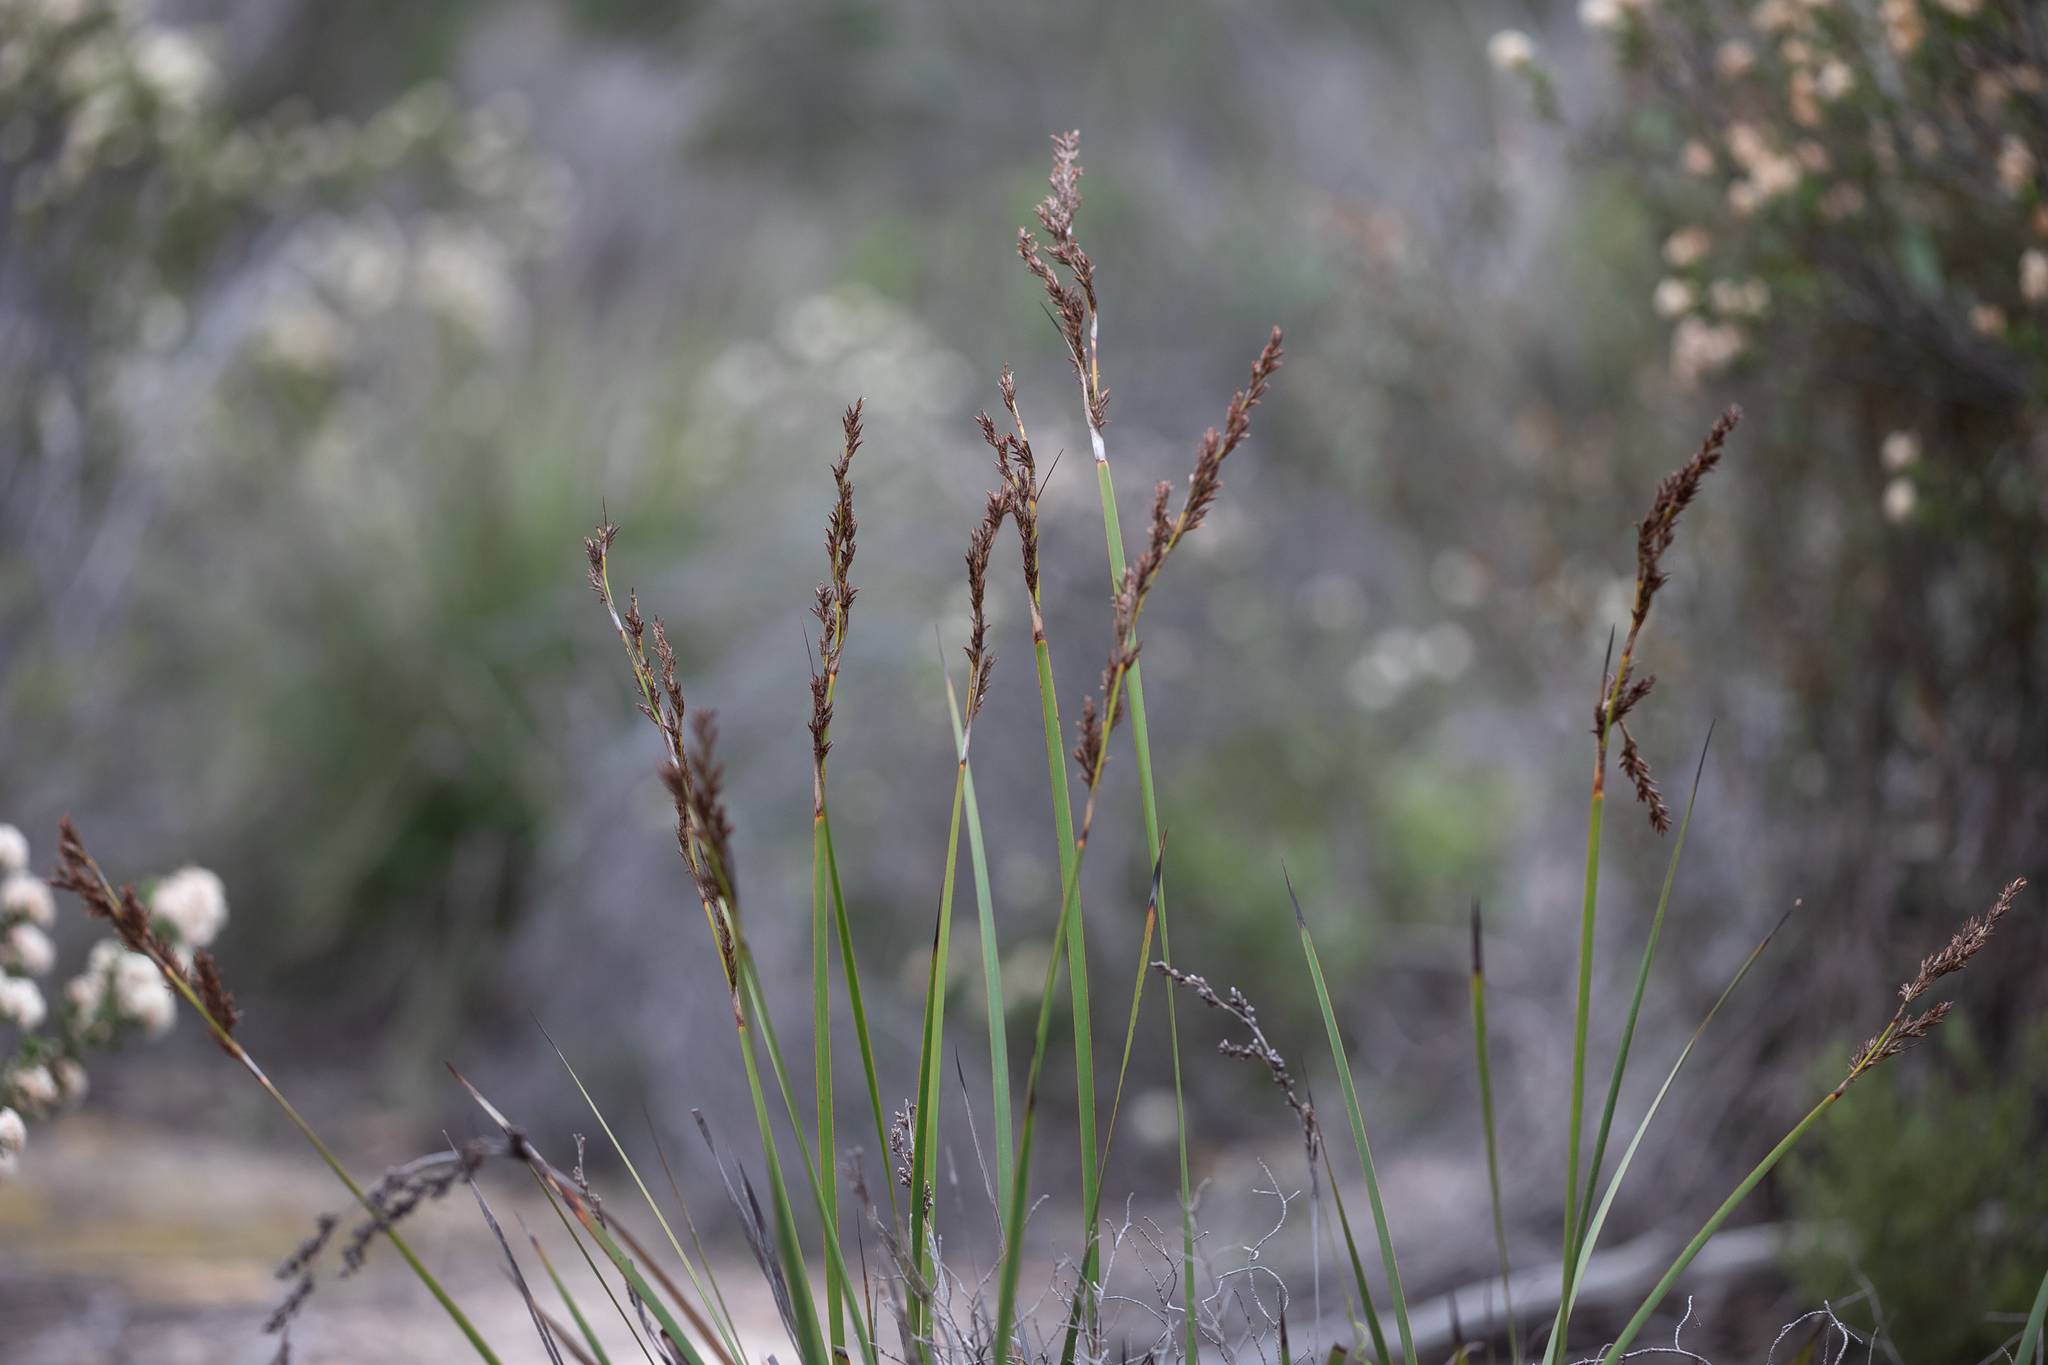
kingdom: Plantae
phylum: Tracheophyta
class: Liliopsida
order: Poales
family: Cyperaceae
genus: Lepidosperma
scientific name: Lepidosperma viscidum
